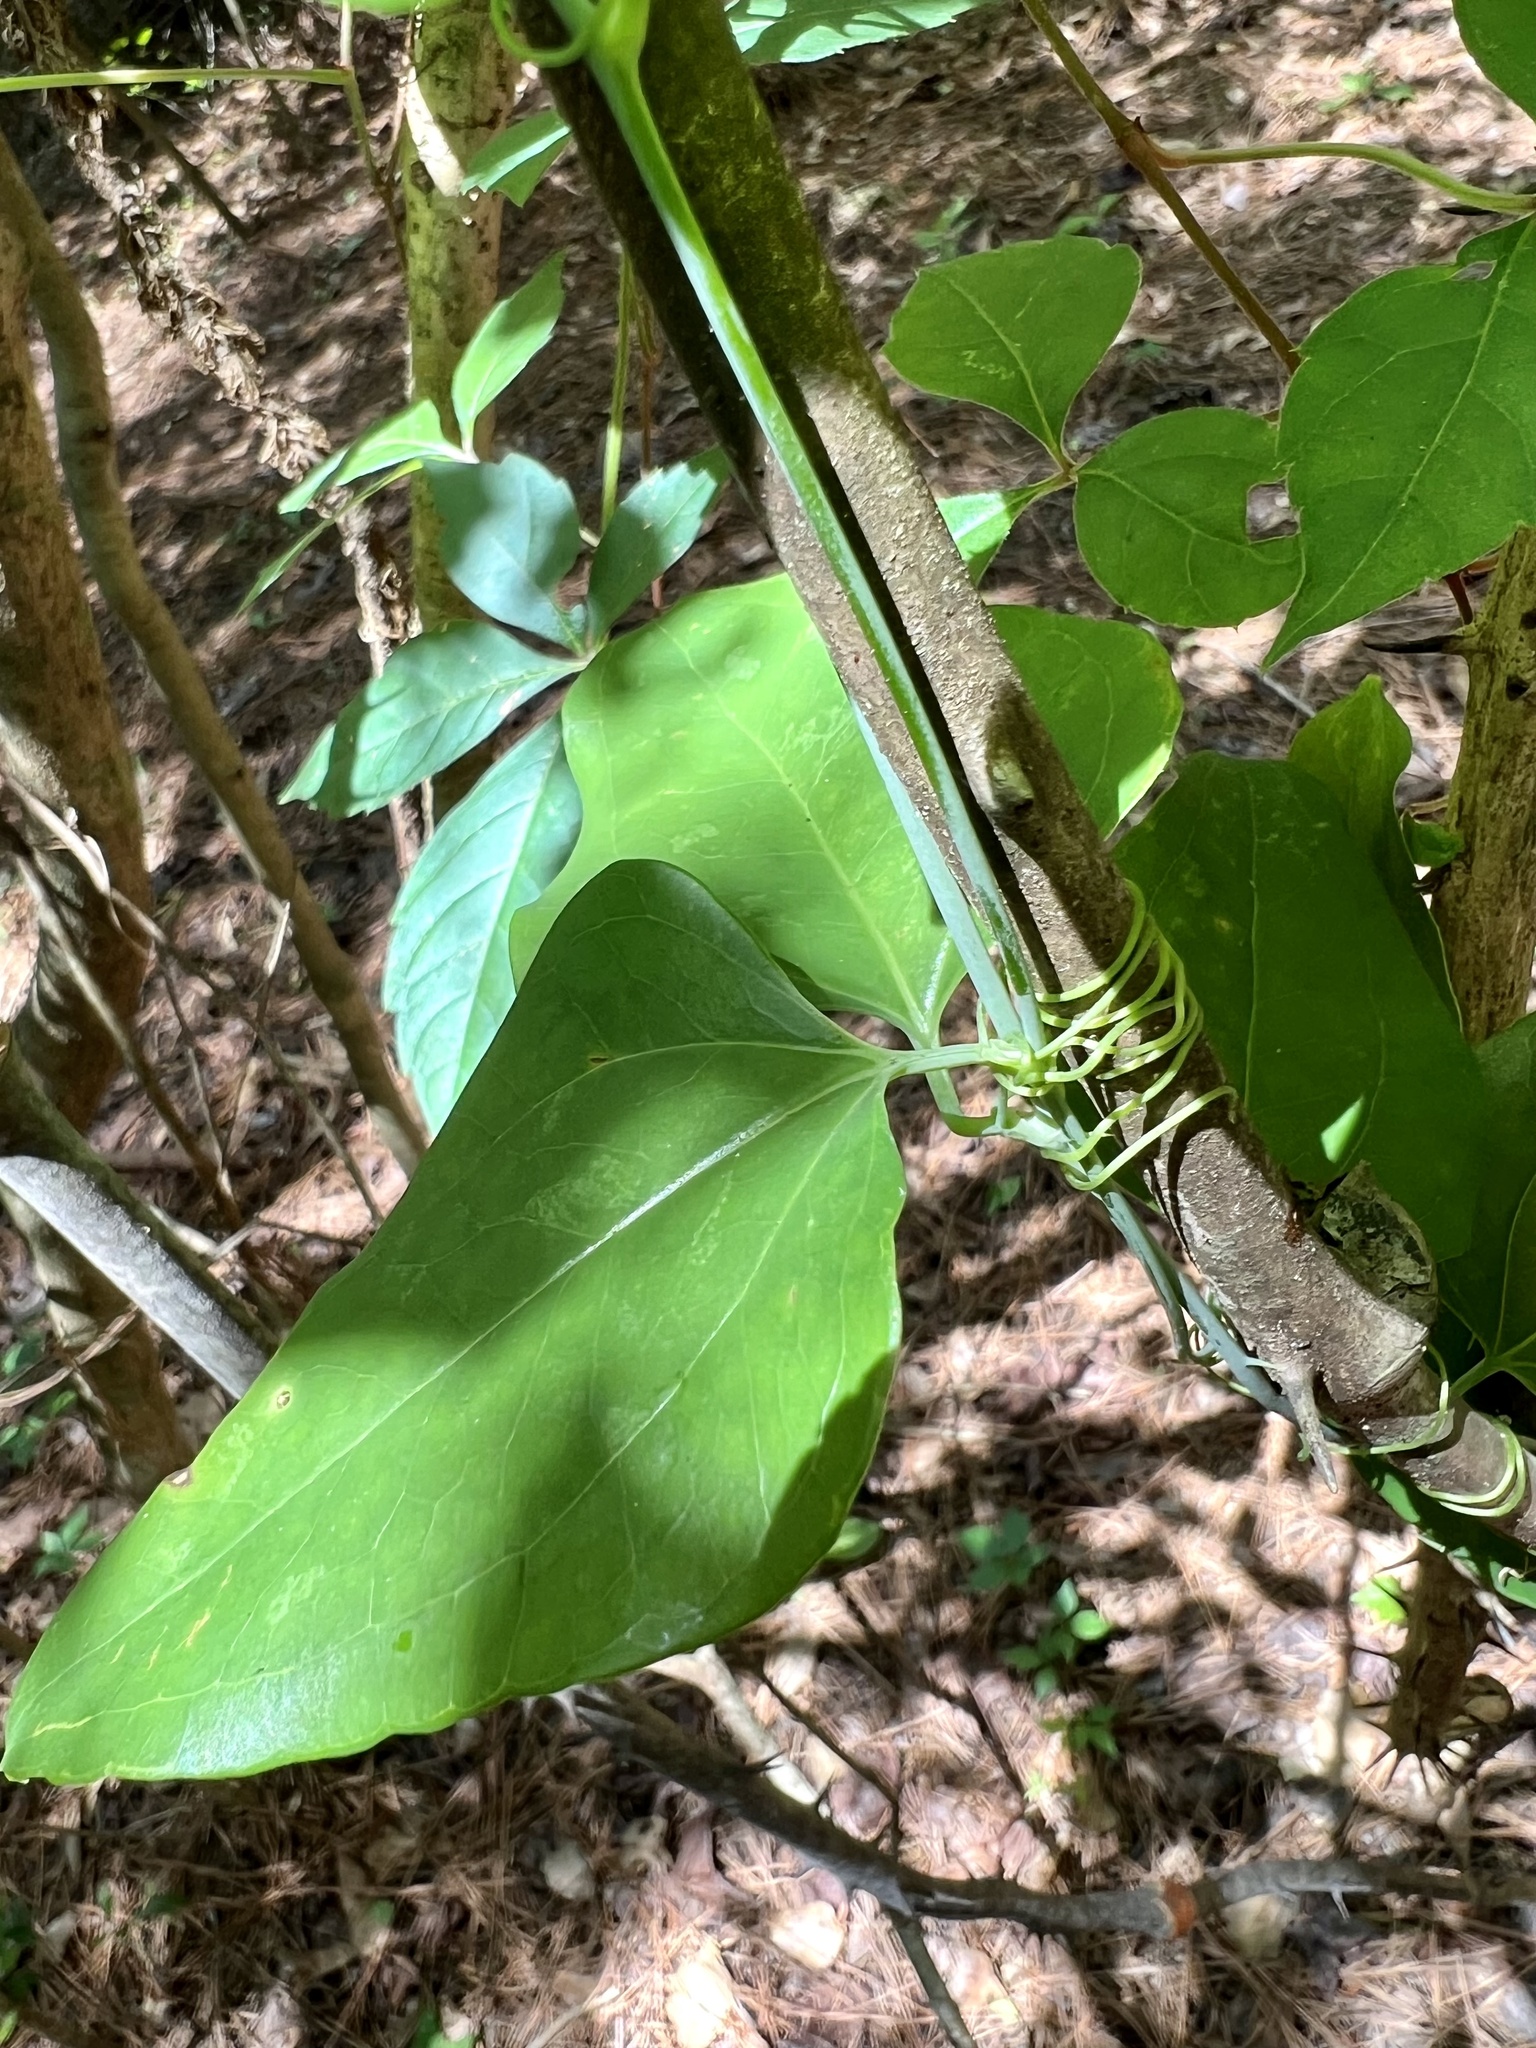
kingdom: Plantae
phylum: Tracheophyta
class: Liliopsida
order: Liliales
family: Smilacaceae
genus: Smilax
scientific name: Smilax glauca
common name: Cat greenbrier
